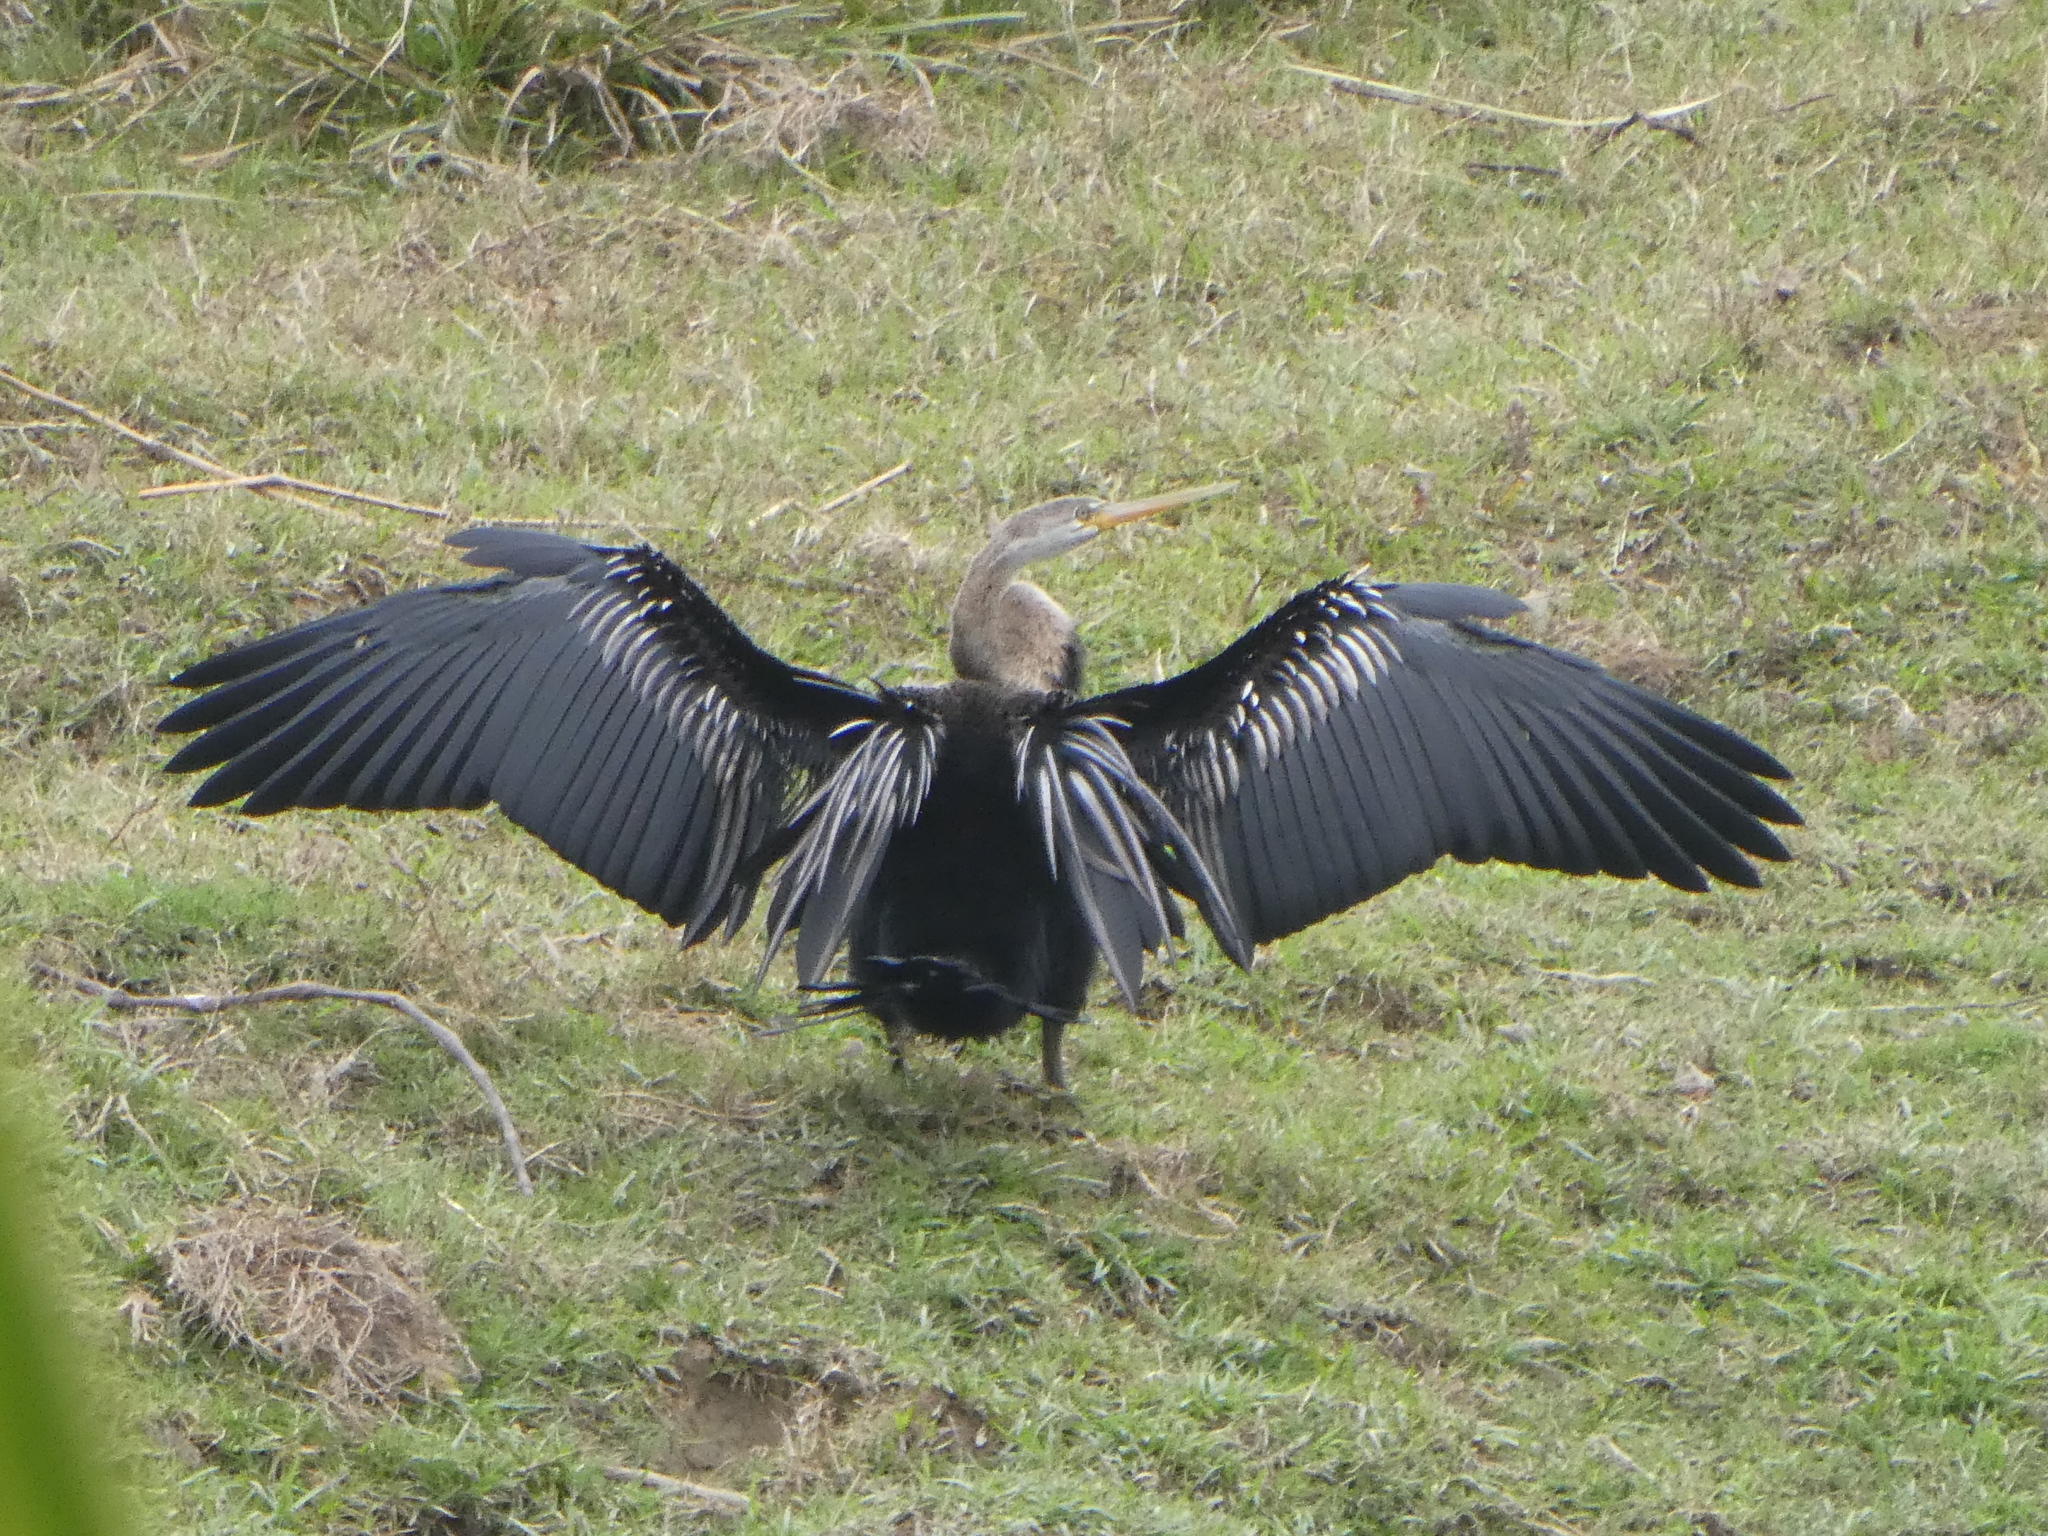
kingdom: Animalia
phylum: Chordata
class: Aves
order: Suliformes
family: Anhingidae
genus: Anhinga
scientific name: Anhinga melanogaster
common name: Oriental darter
